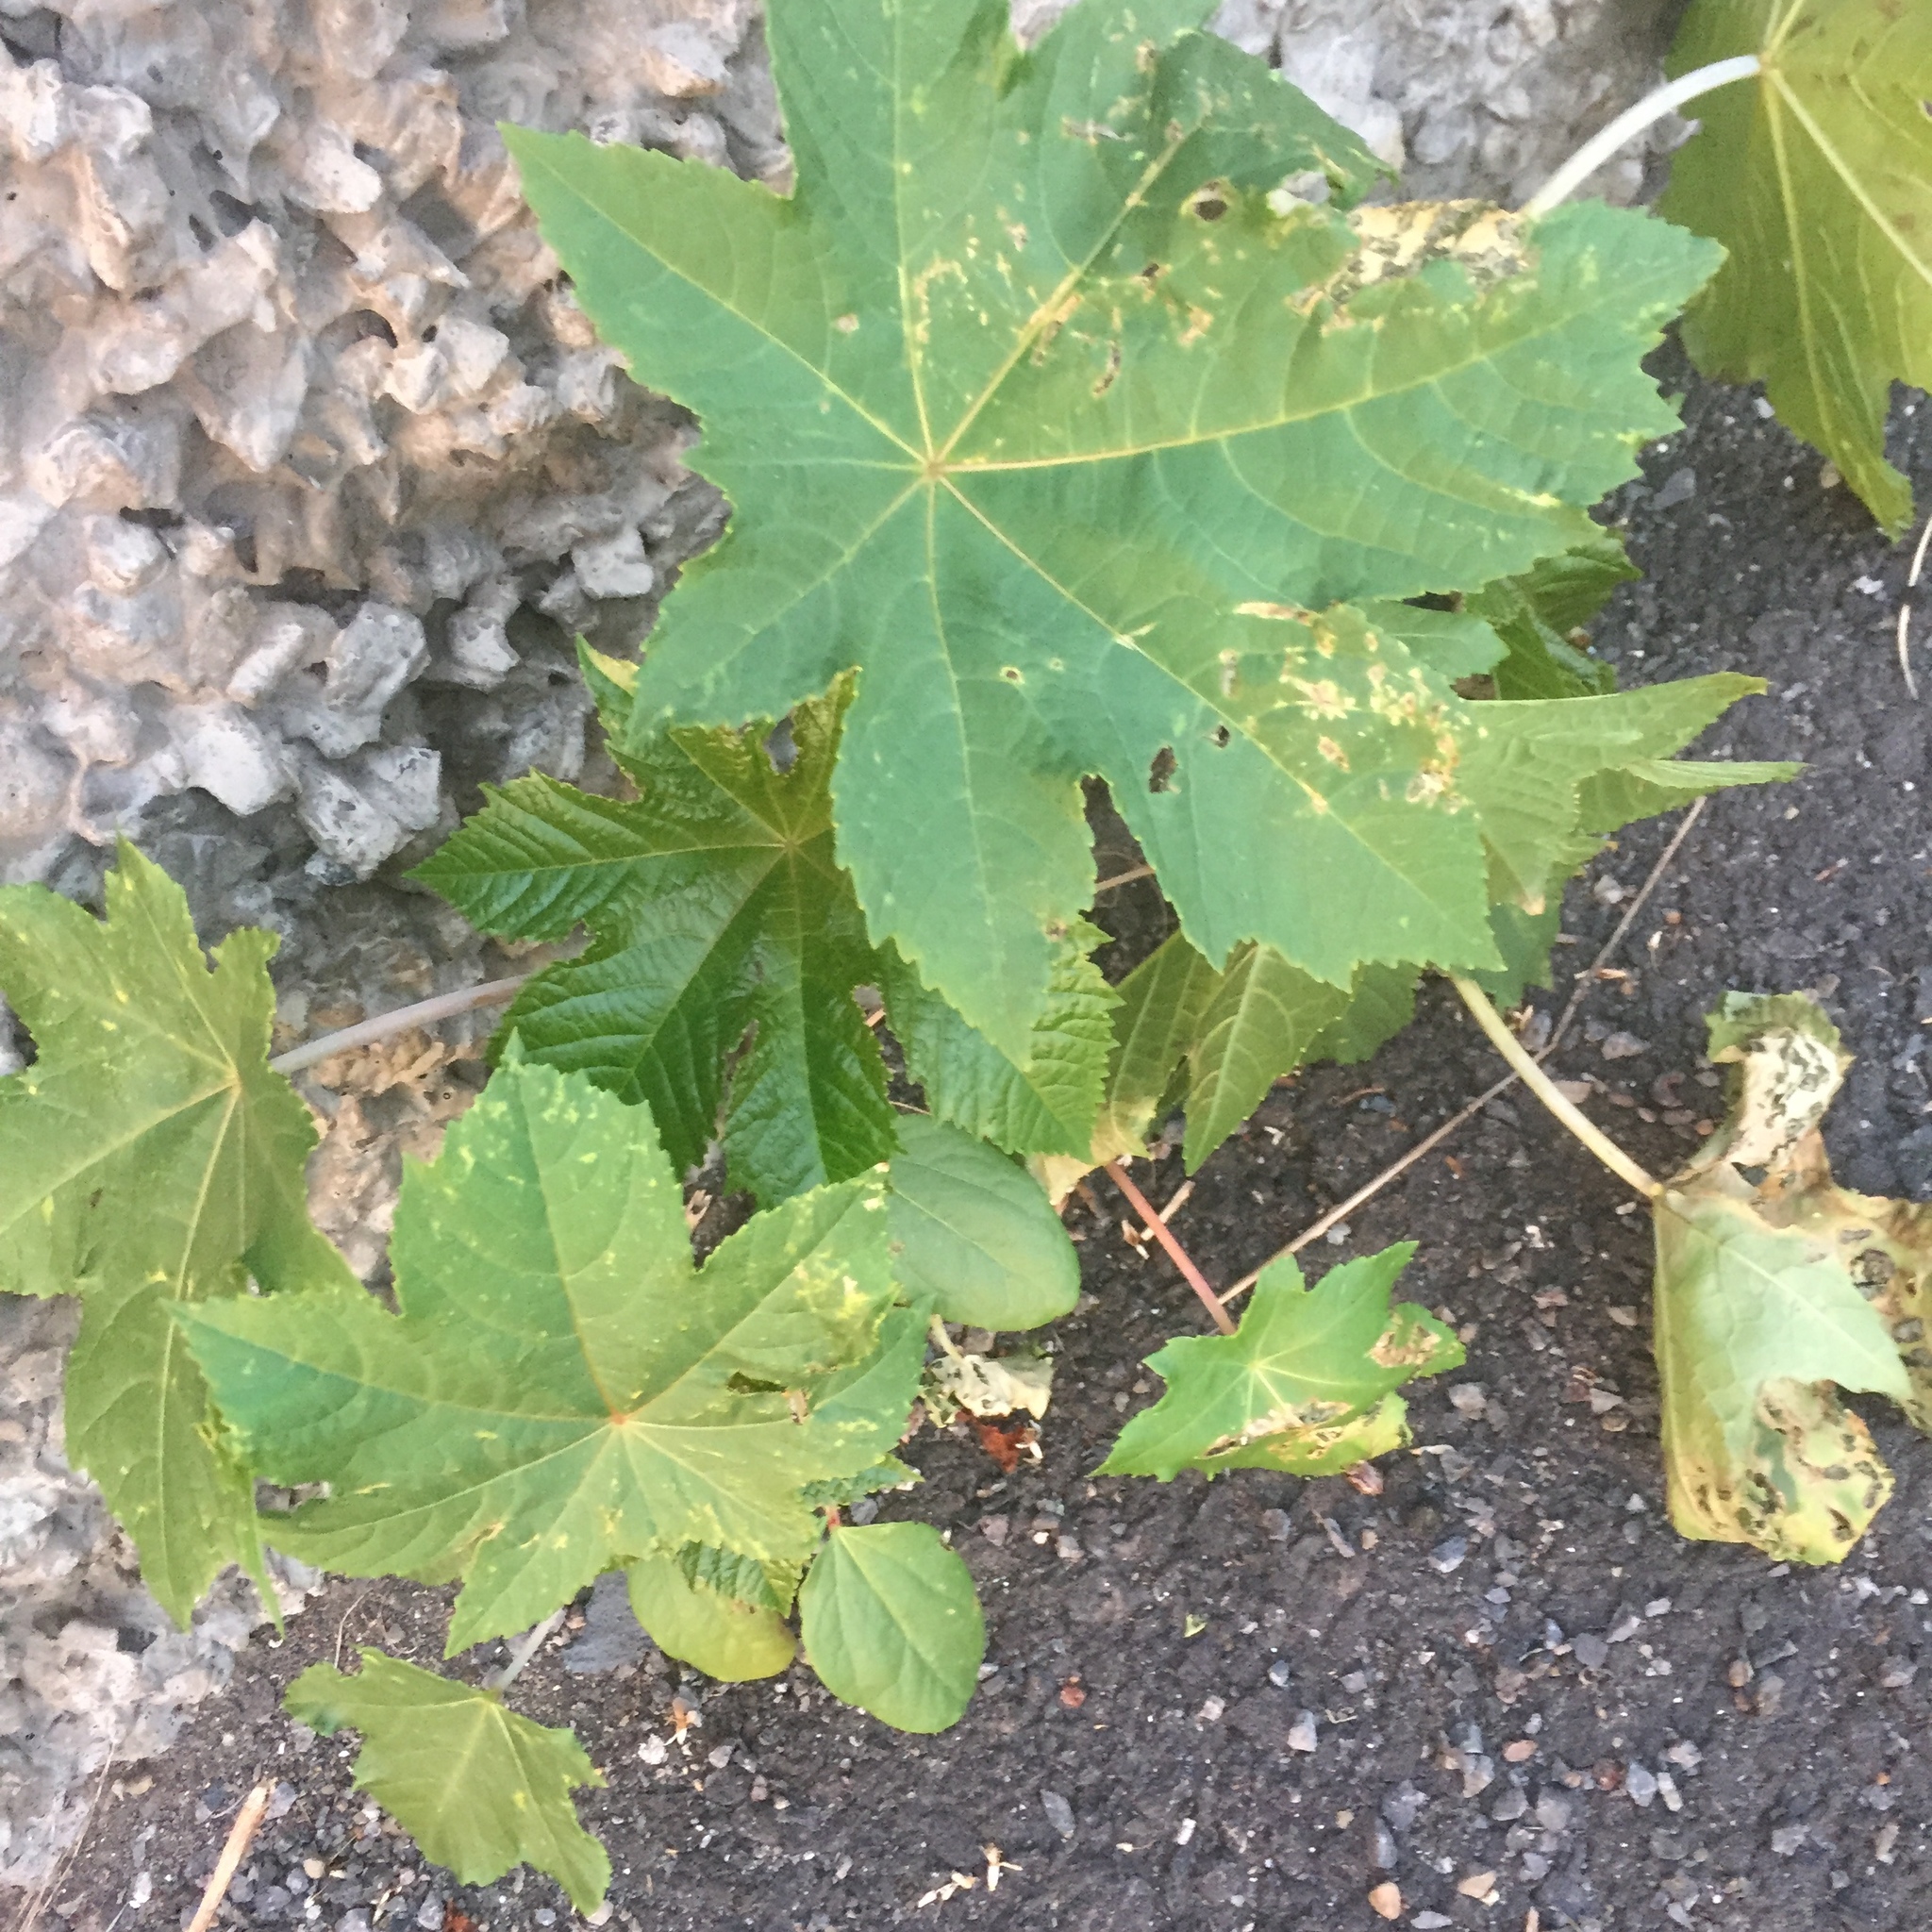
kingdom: Plantae
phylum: Tracheophyta
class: Magnoliopsida
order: Malpighiales
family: Euphorbiaceae
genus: Ricinus
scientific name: Ricinus communis
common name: Castor-oil-plant
